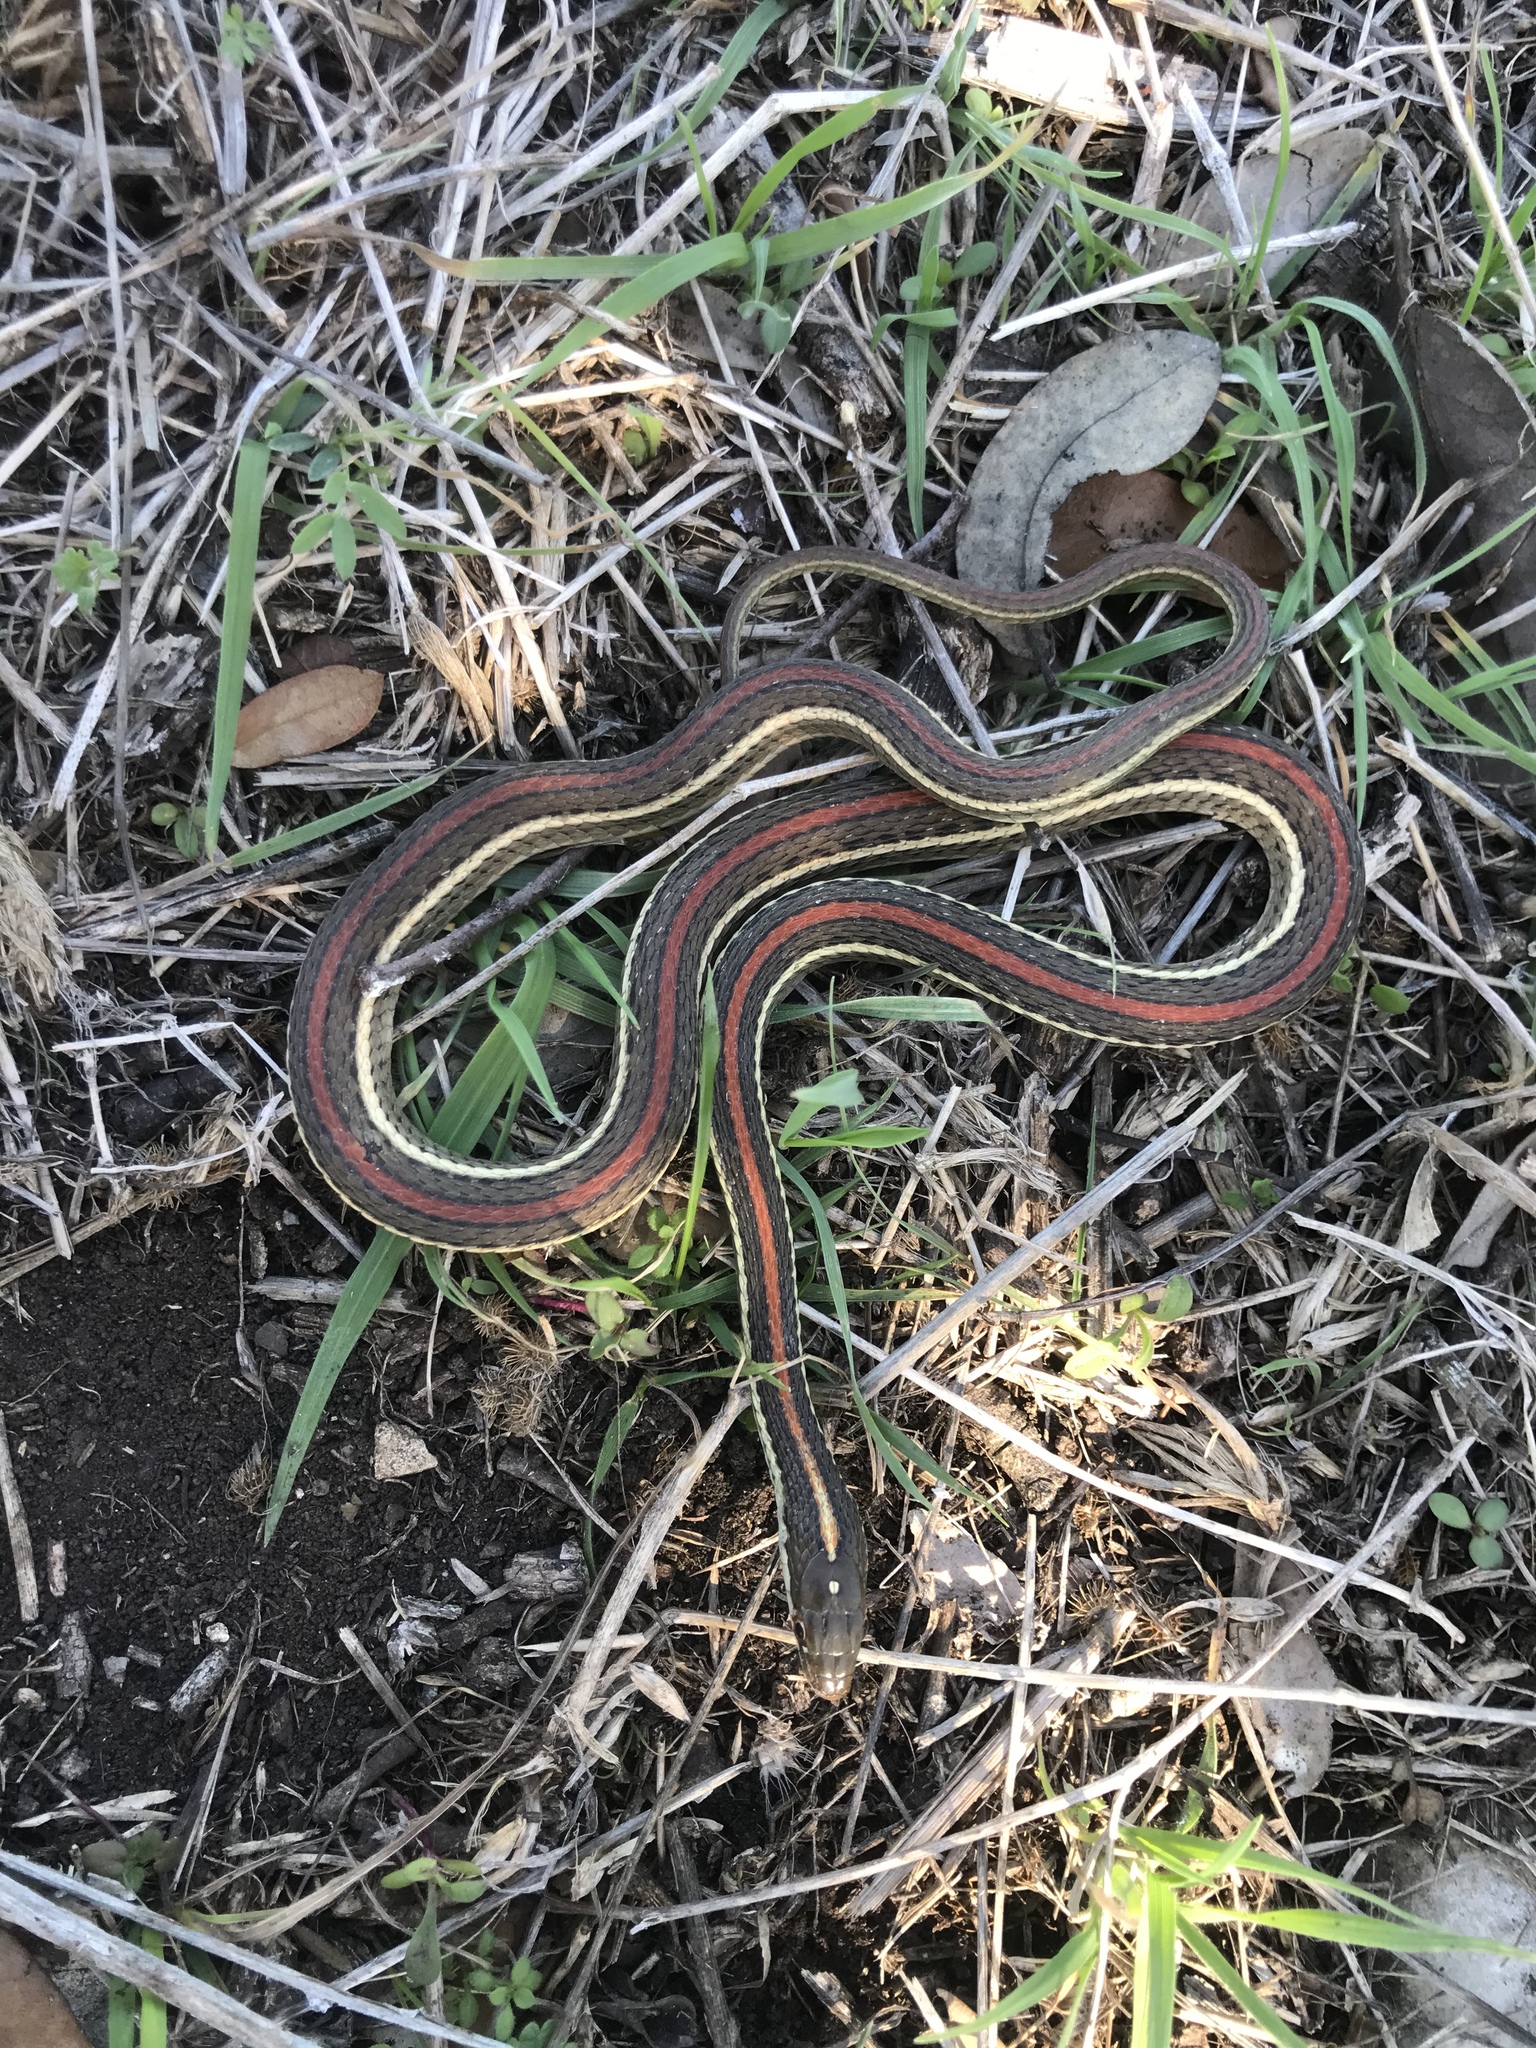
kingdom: Animalia
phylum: Chordata
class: Squamata
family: Colubridae
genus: Thamnophis
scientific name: Thamnophis proximus
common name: Western ribbon snake
